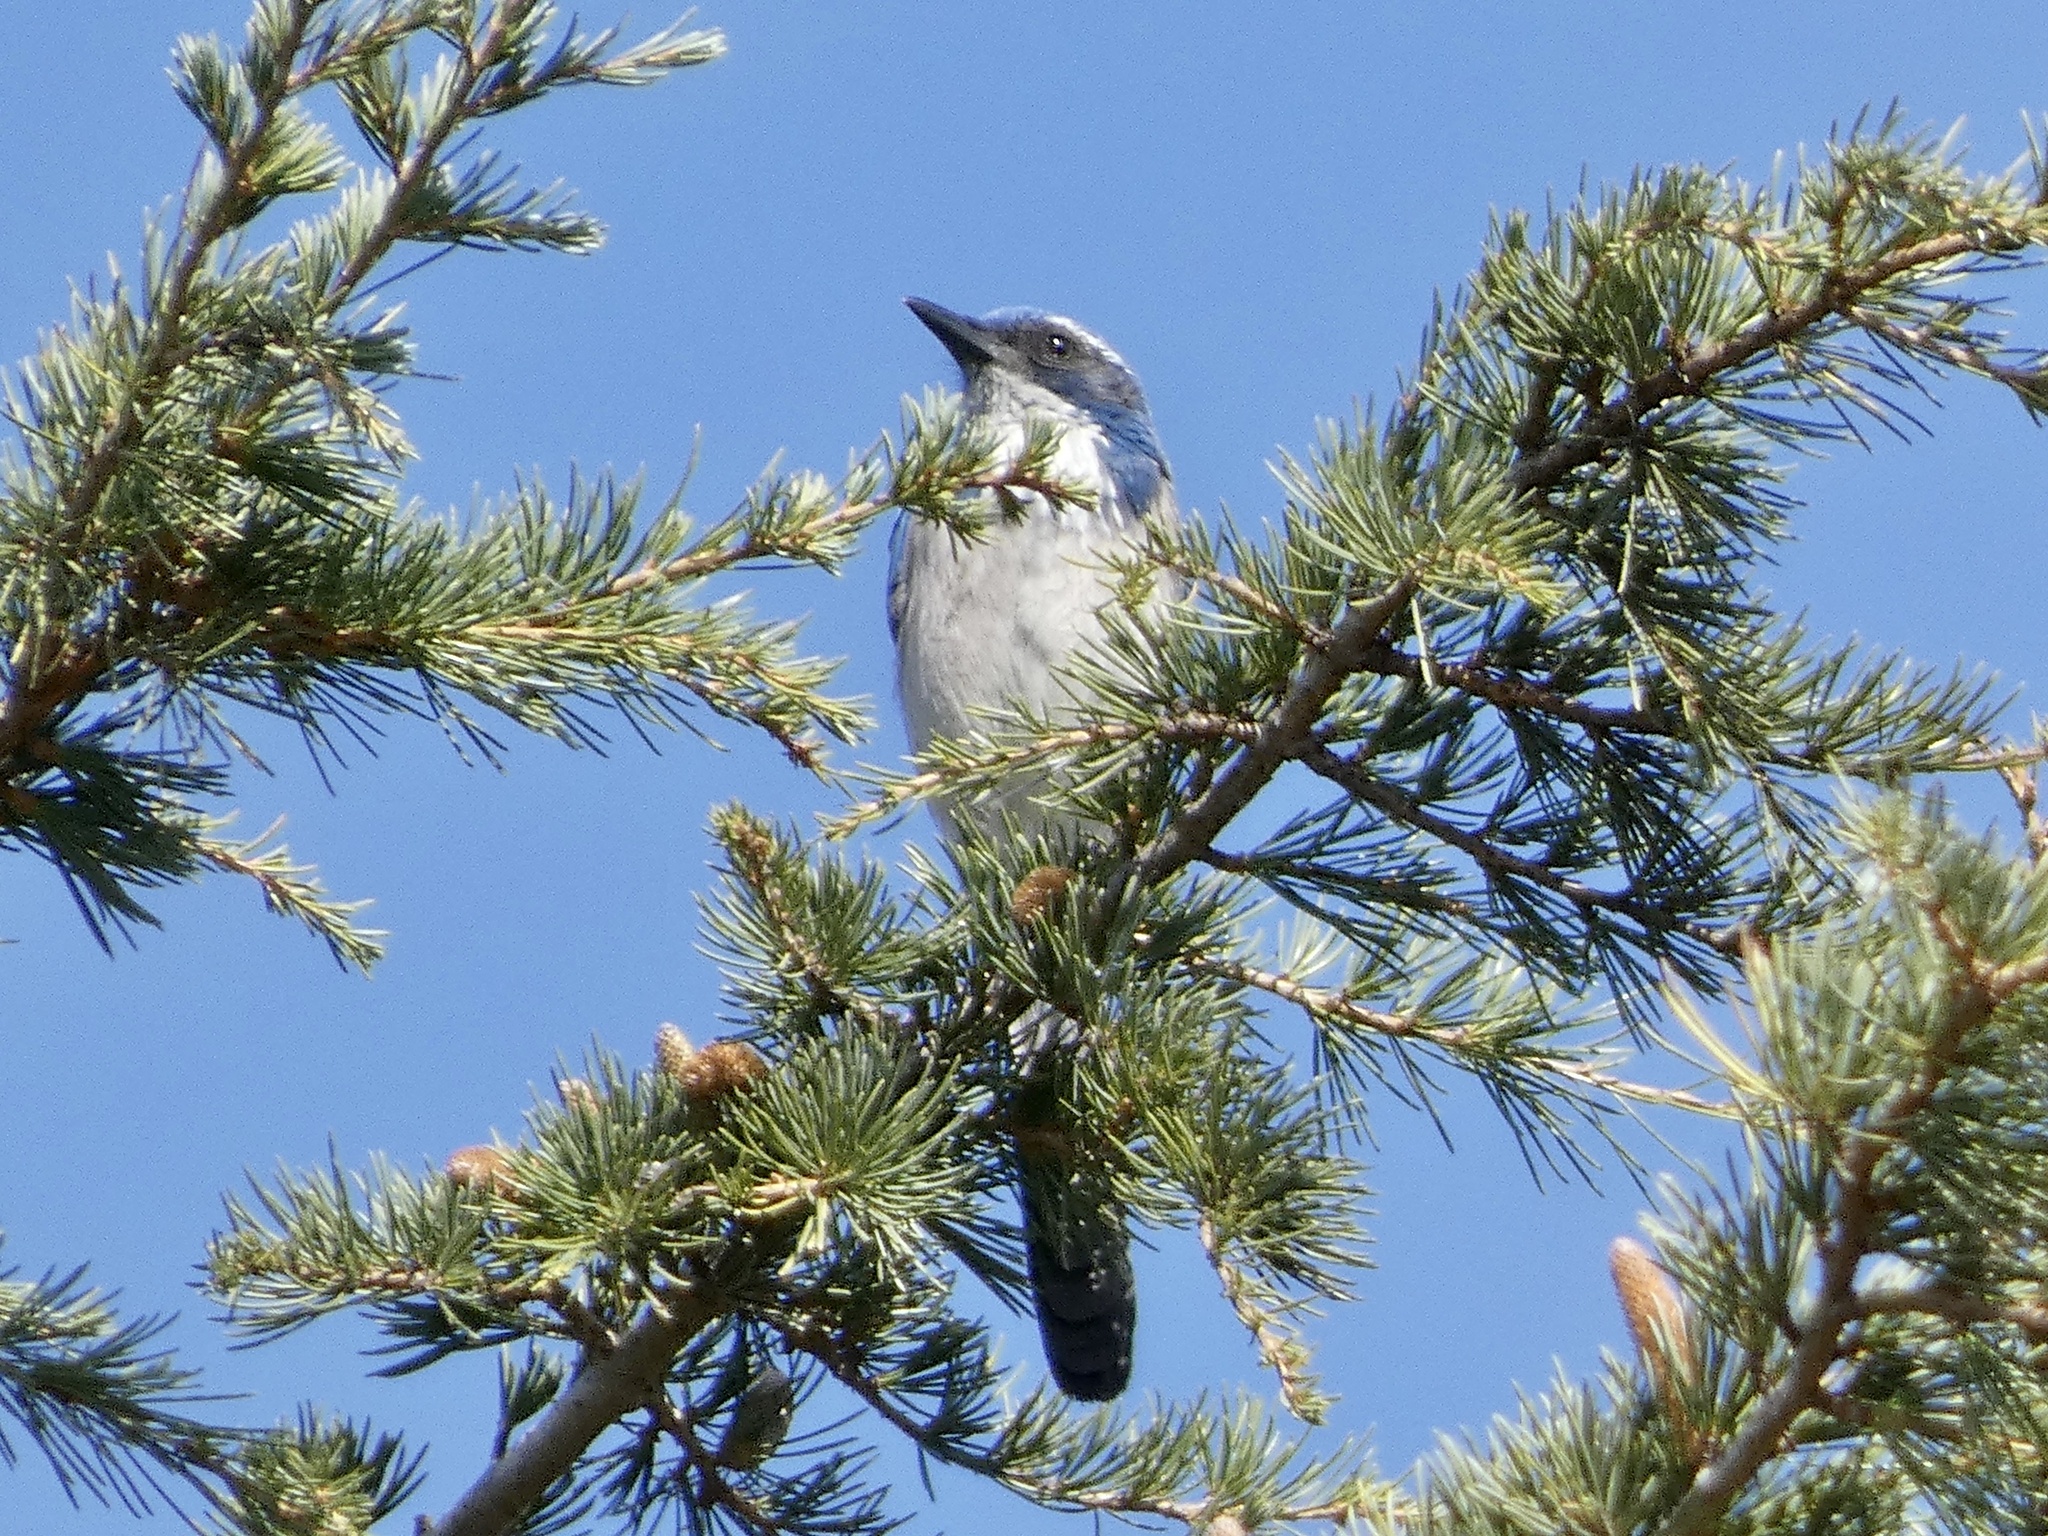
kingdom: Animalia
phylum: Chordata
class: Aves
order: Passeriformes
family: Corvidae
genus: Aphelocoma
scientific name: Aphelocoma californica
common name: California scrub-jay
